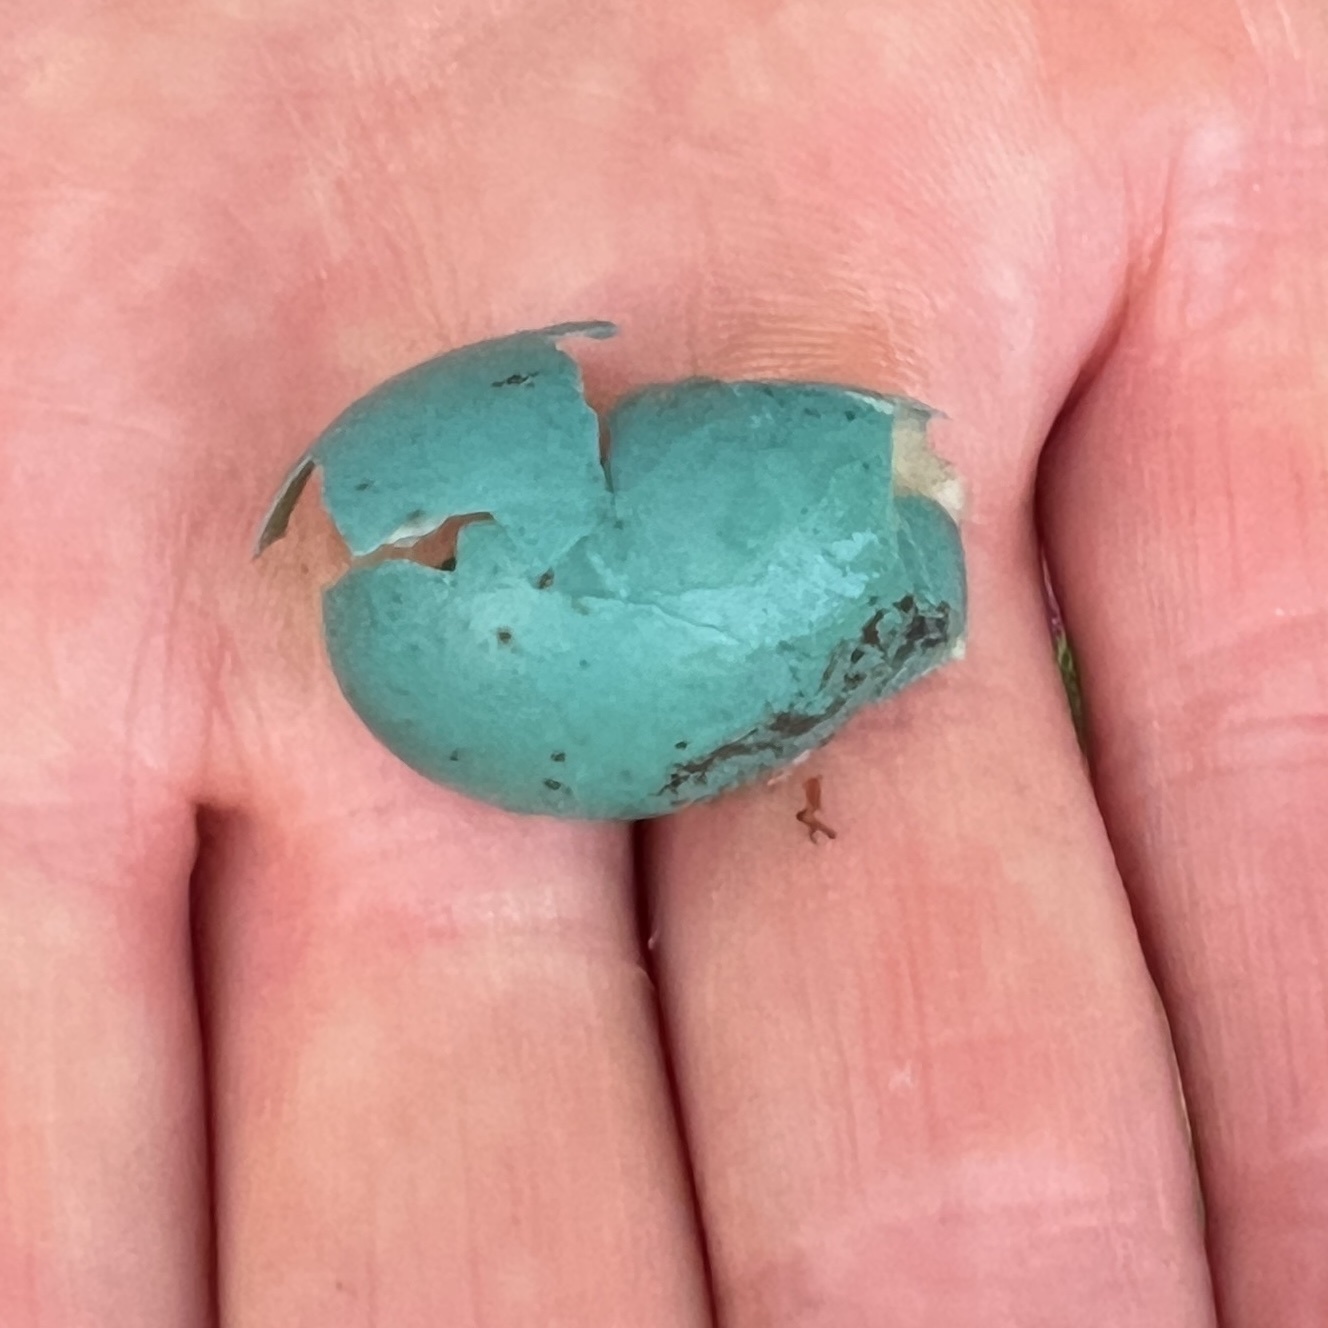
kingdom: Animalia
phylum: Chordata
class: Aves
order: Passeriformes
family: Mimidae
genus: Dumetella
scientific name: Dumetella carolinensis
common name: Gray catbird
